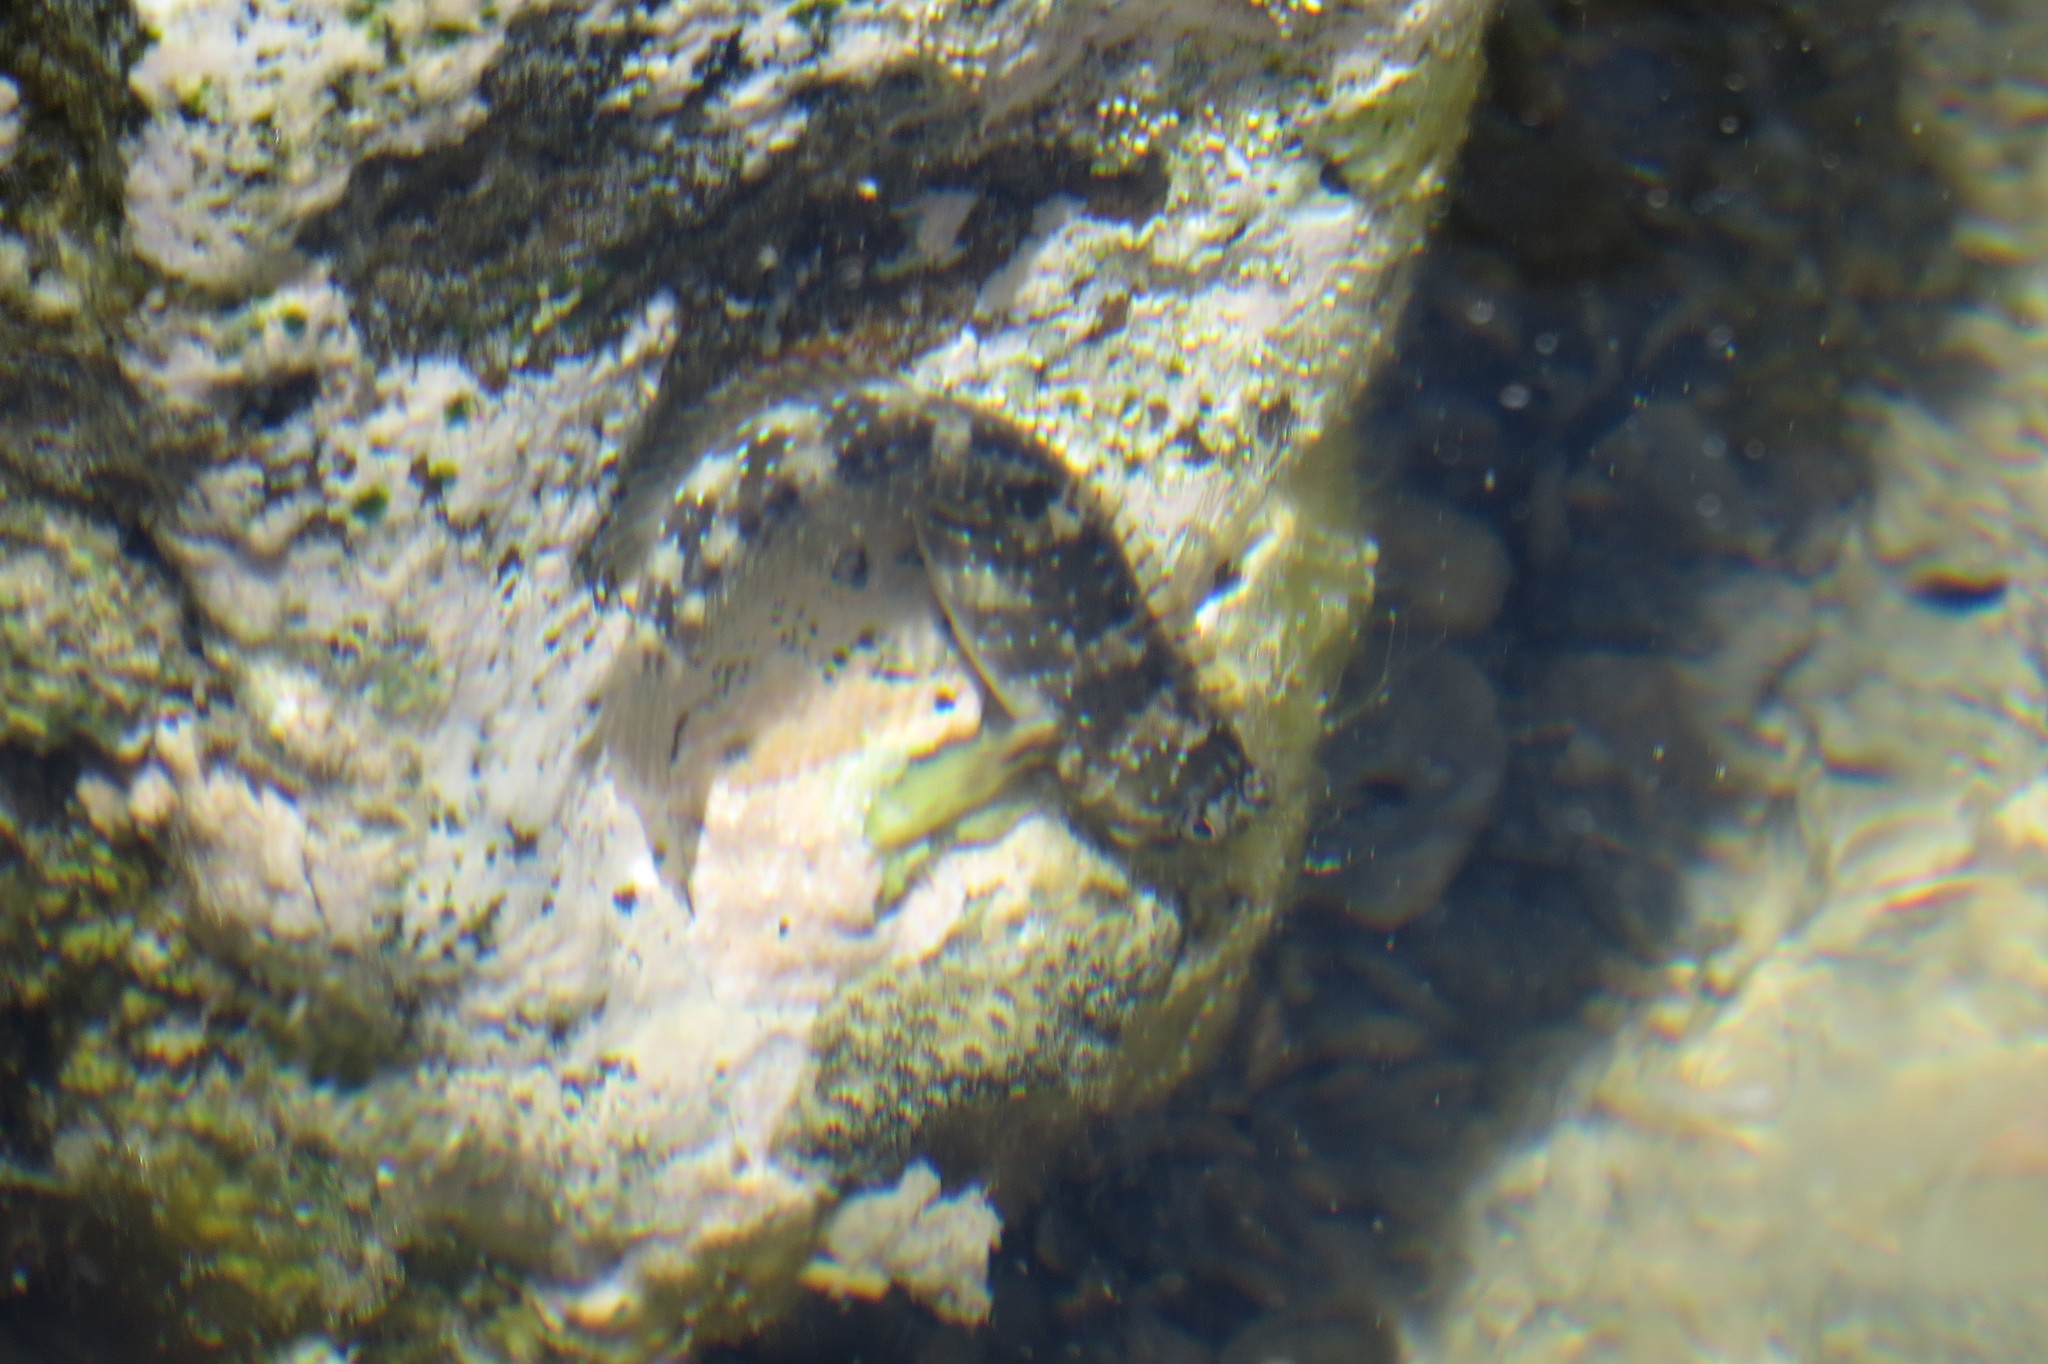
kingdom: Animalia
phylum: Chordata
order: Perciformes
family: Blenniidae
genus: Istiblennius
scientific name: Istiblennius meleagris
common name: Peacock rockskipper
